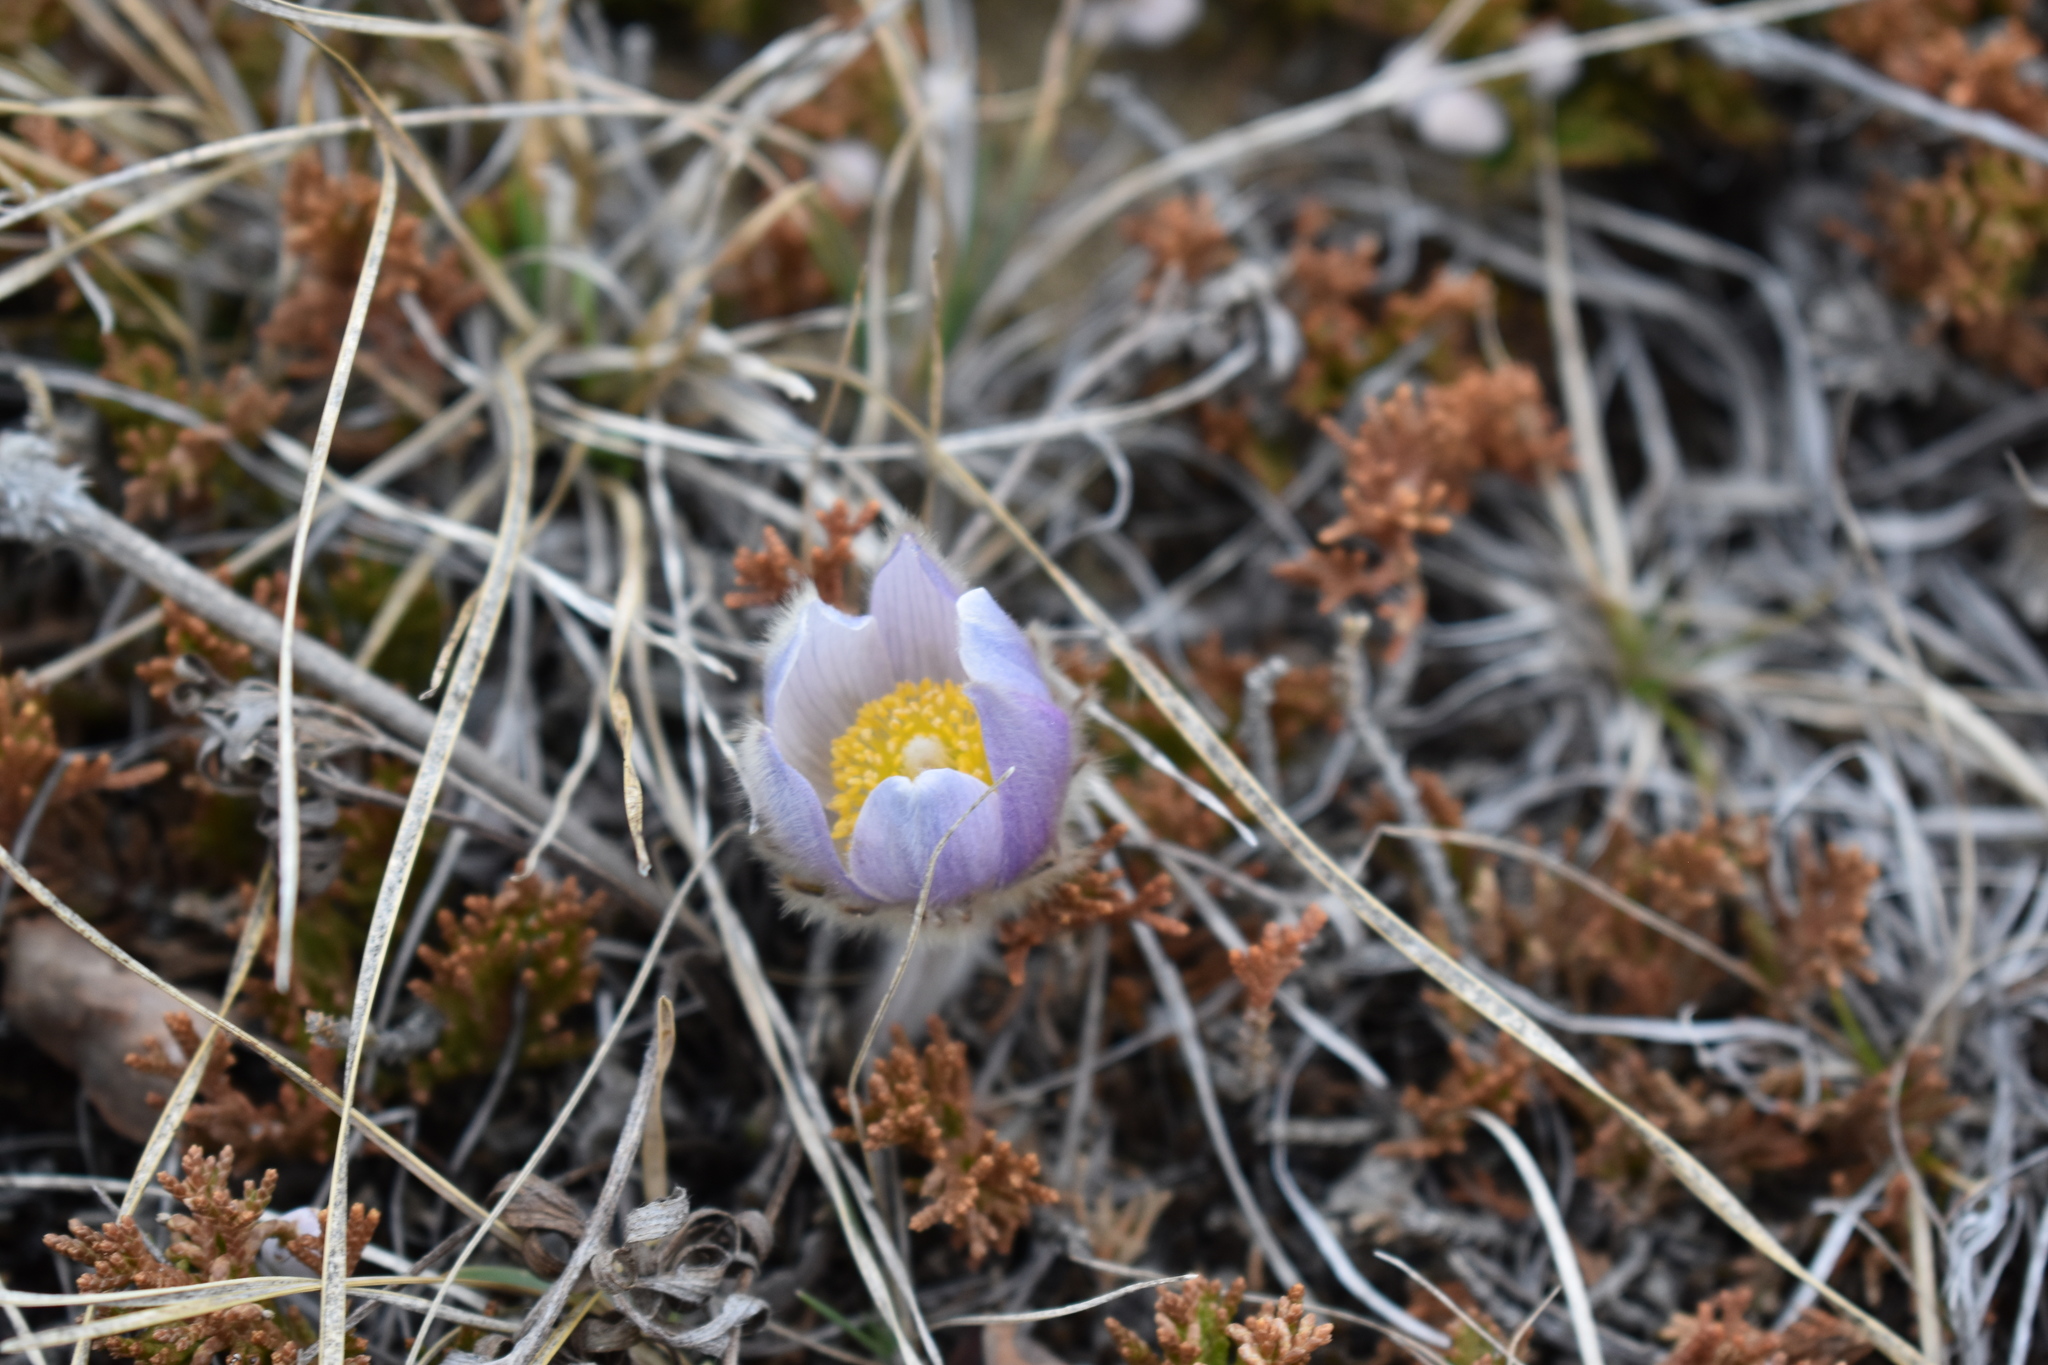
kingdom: Plantae
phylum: Tracheophyta
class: Magnoliopsida
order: Ranunculales
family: Ranunculaceae
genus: Pulsatilla
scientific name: Pulsatilla nuttalliana
